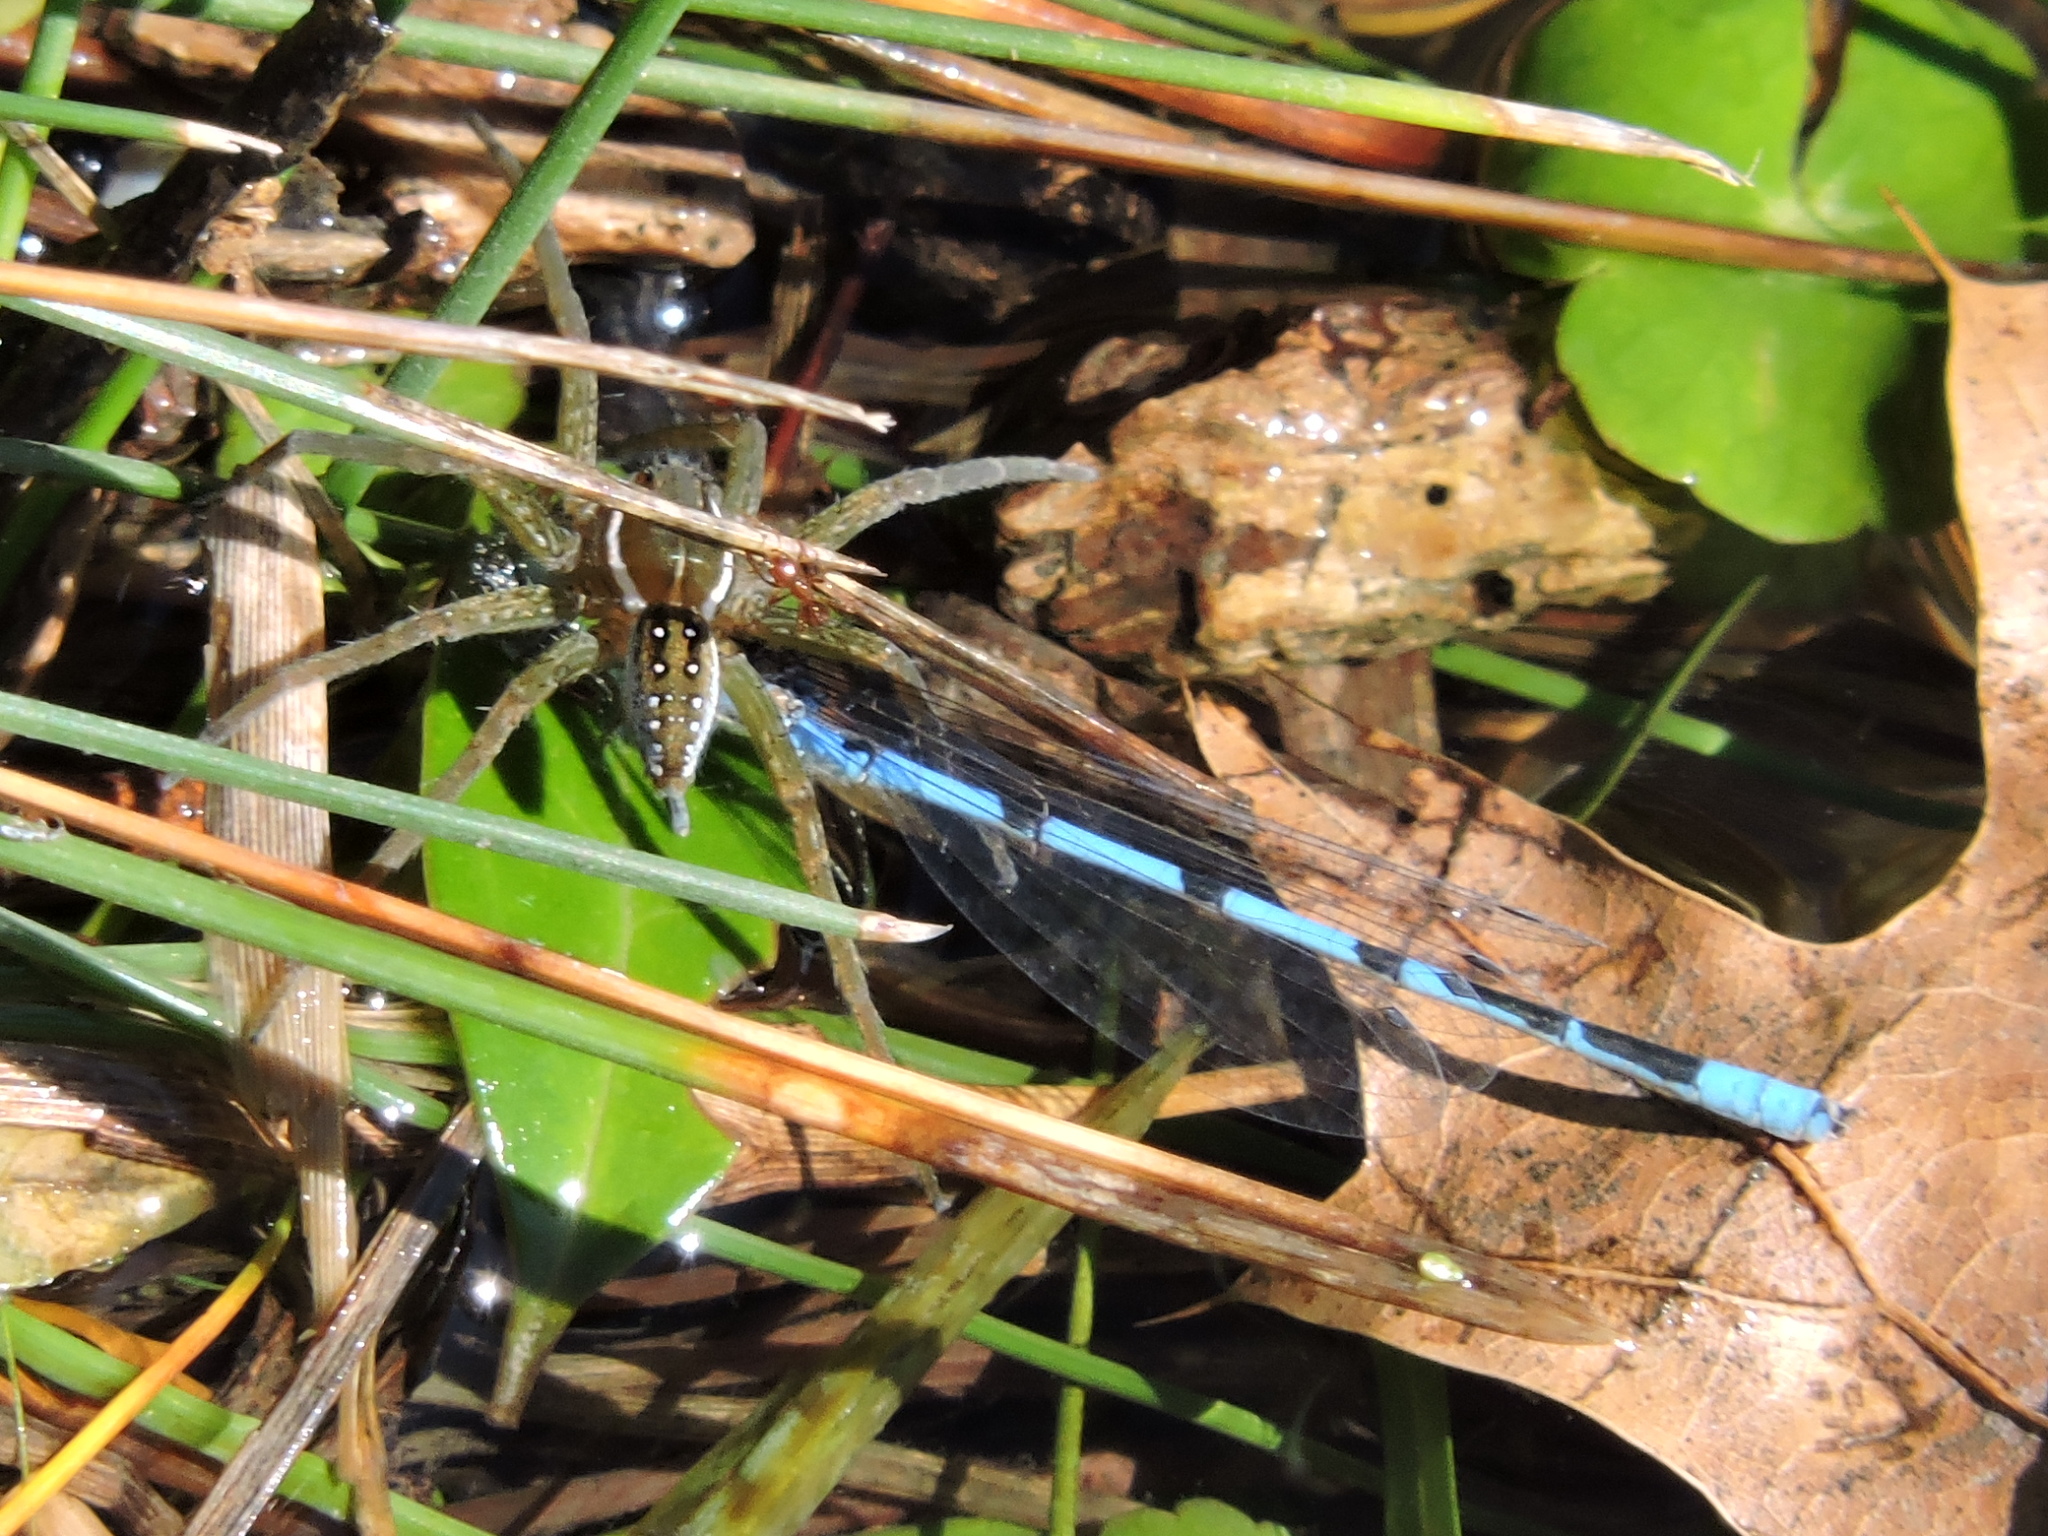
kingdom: Animalia
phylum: Arthropoda
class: Arachnida
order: Araneae
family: Pisauridae
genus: Dolomedes
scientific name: Dolomedes triton
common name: Six-spotted fishing spider
